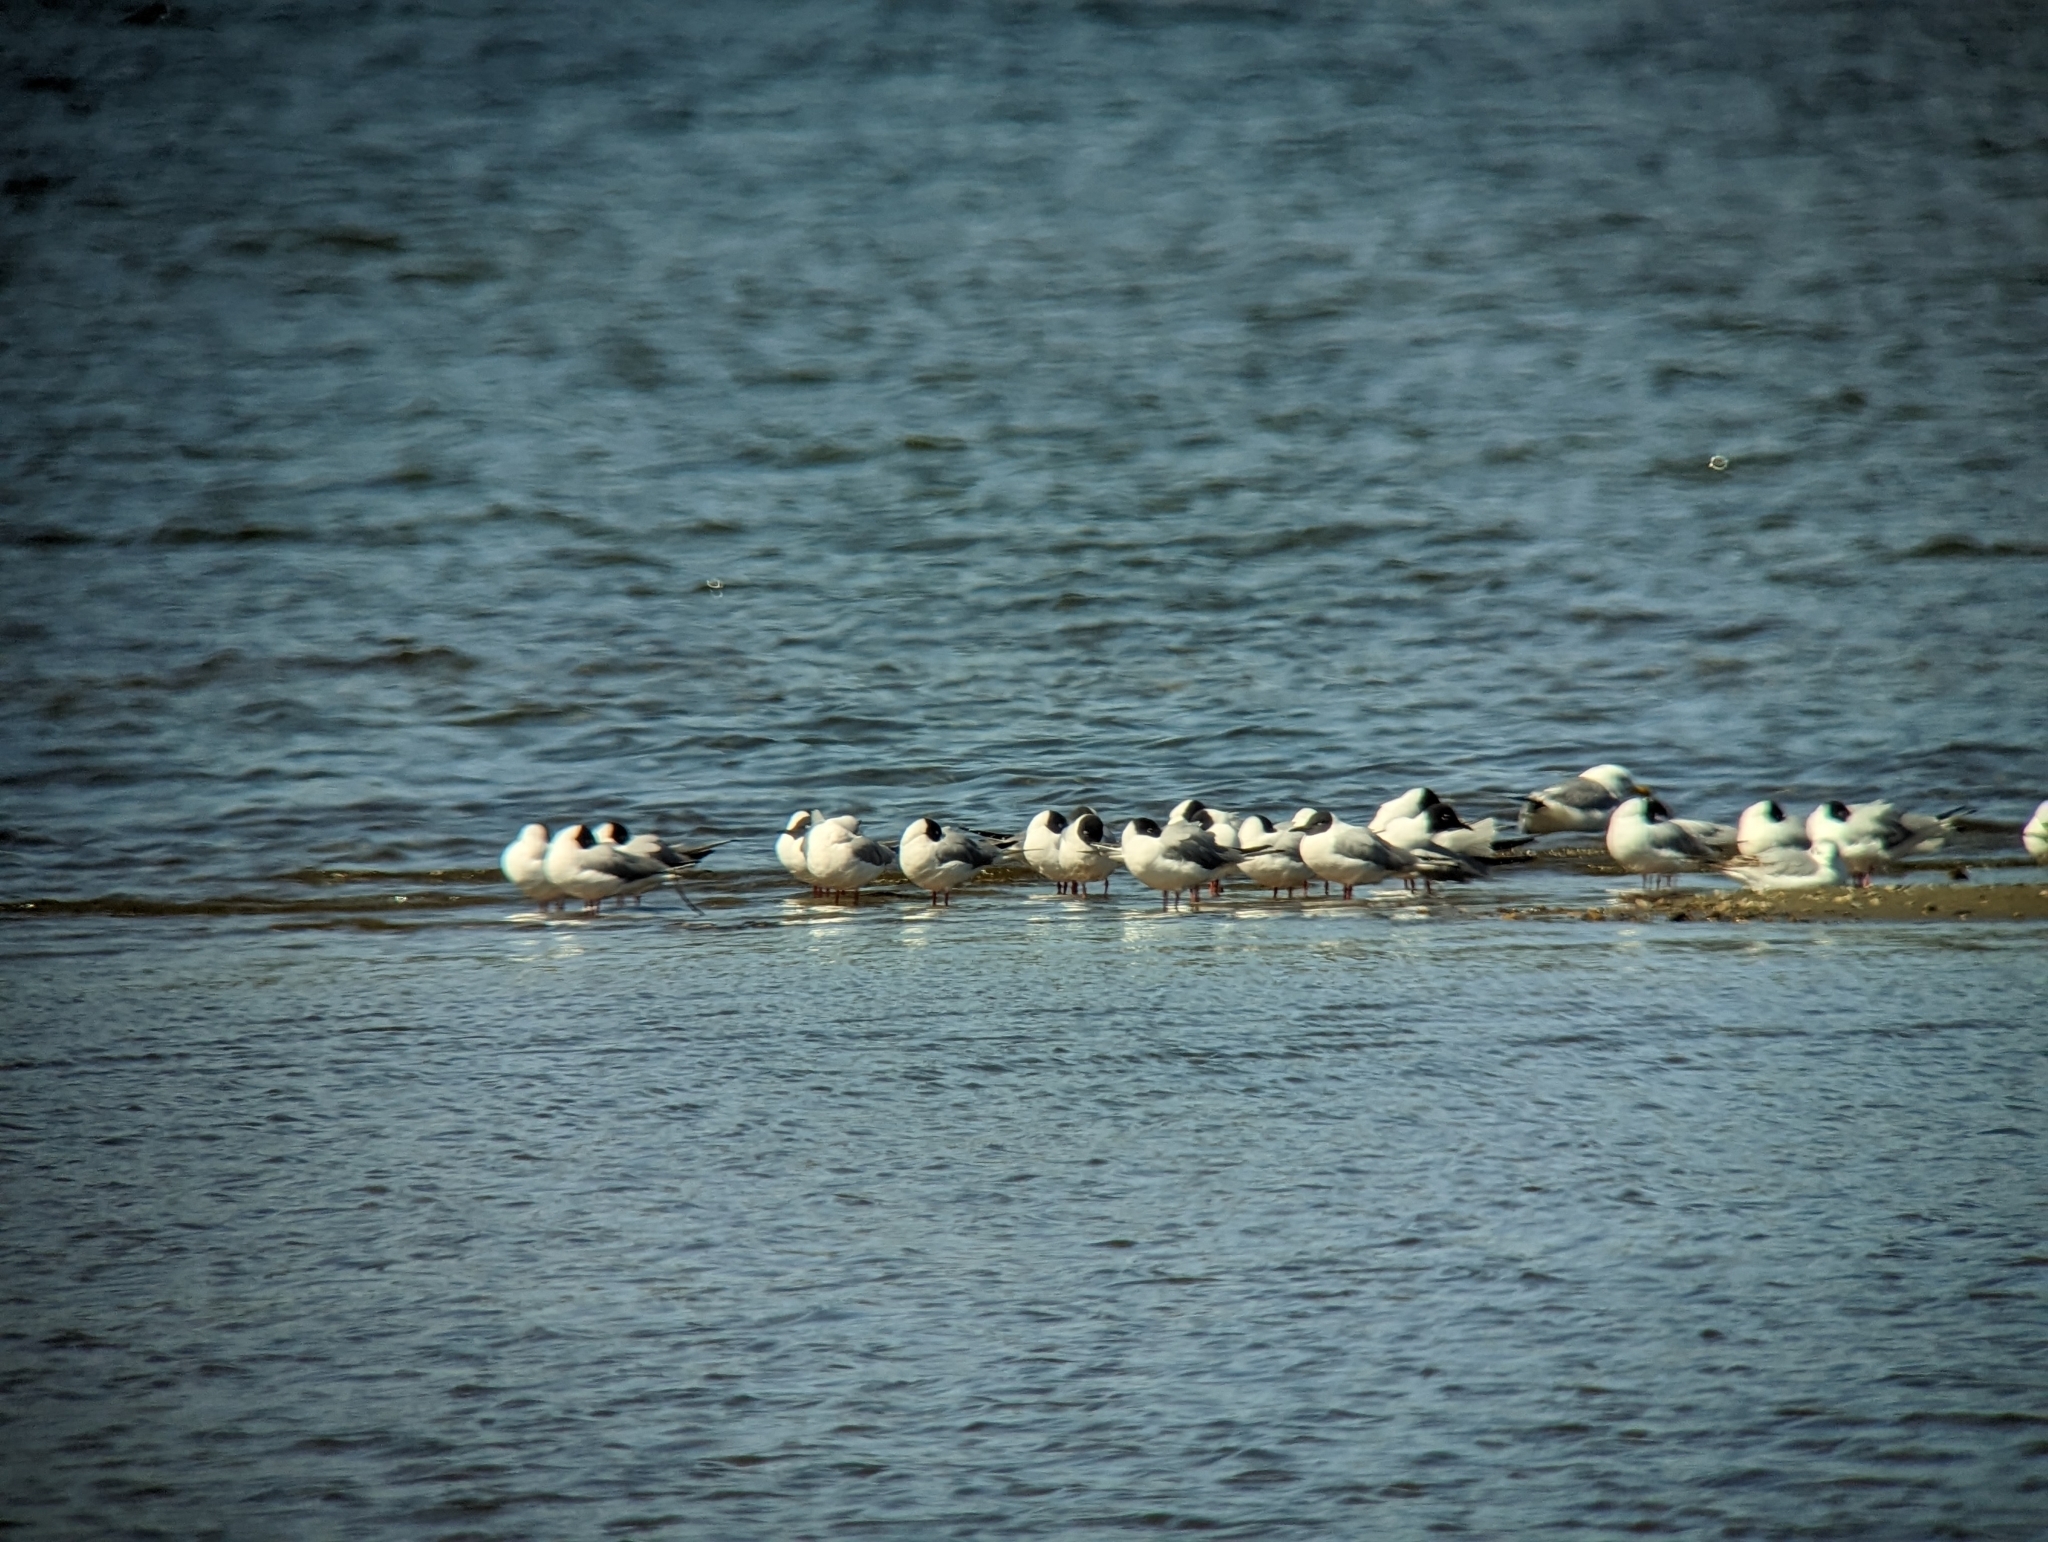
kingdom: Animalia
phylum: Chordata
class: Aves
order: Charadriiformes
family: Laridae
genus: Chroicocephalus
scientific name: Chroicocephalus philadelphia
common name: Bonaparte's gull
